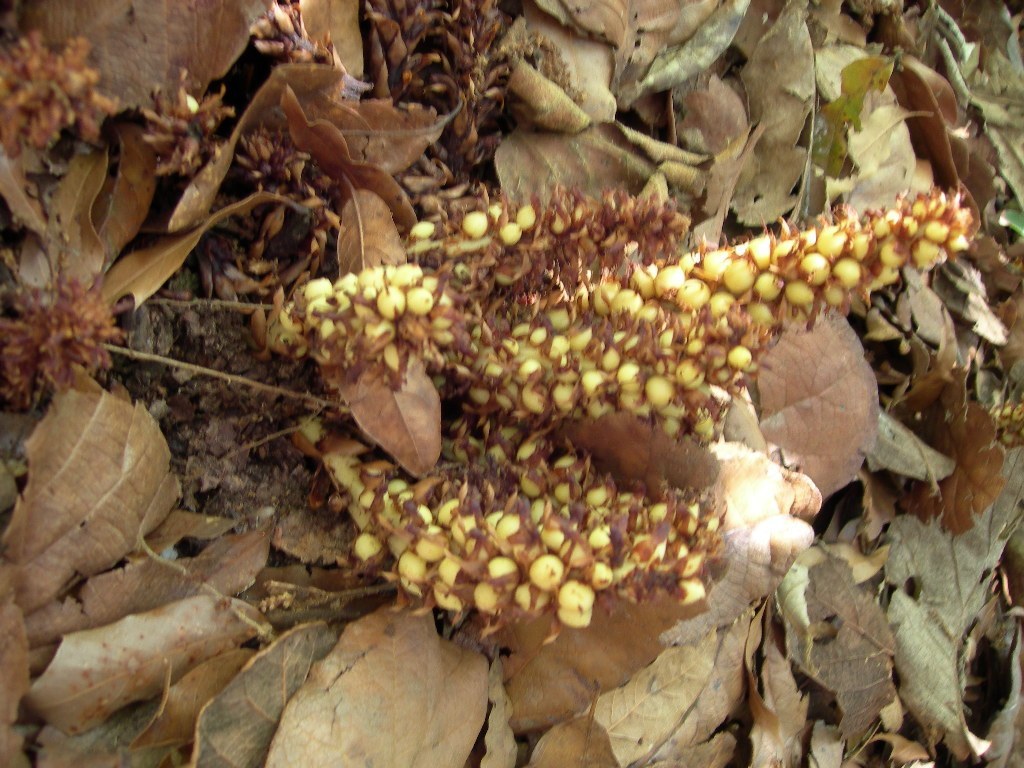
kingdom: Plantae
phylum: Tracheophyta
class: Magnoliopsida
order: Lamiales
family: Orobanchaceae
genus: Conopholis
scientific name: Conopholis alpina
